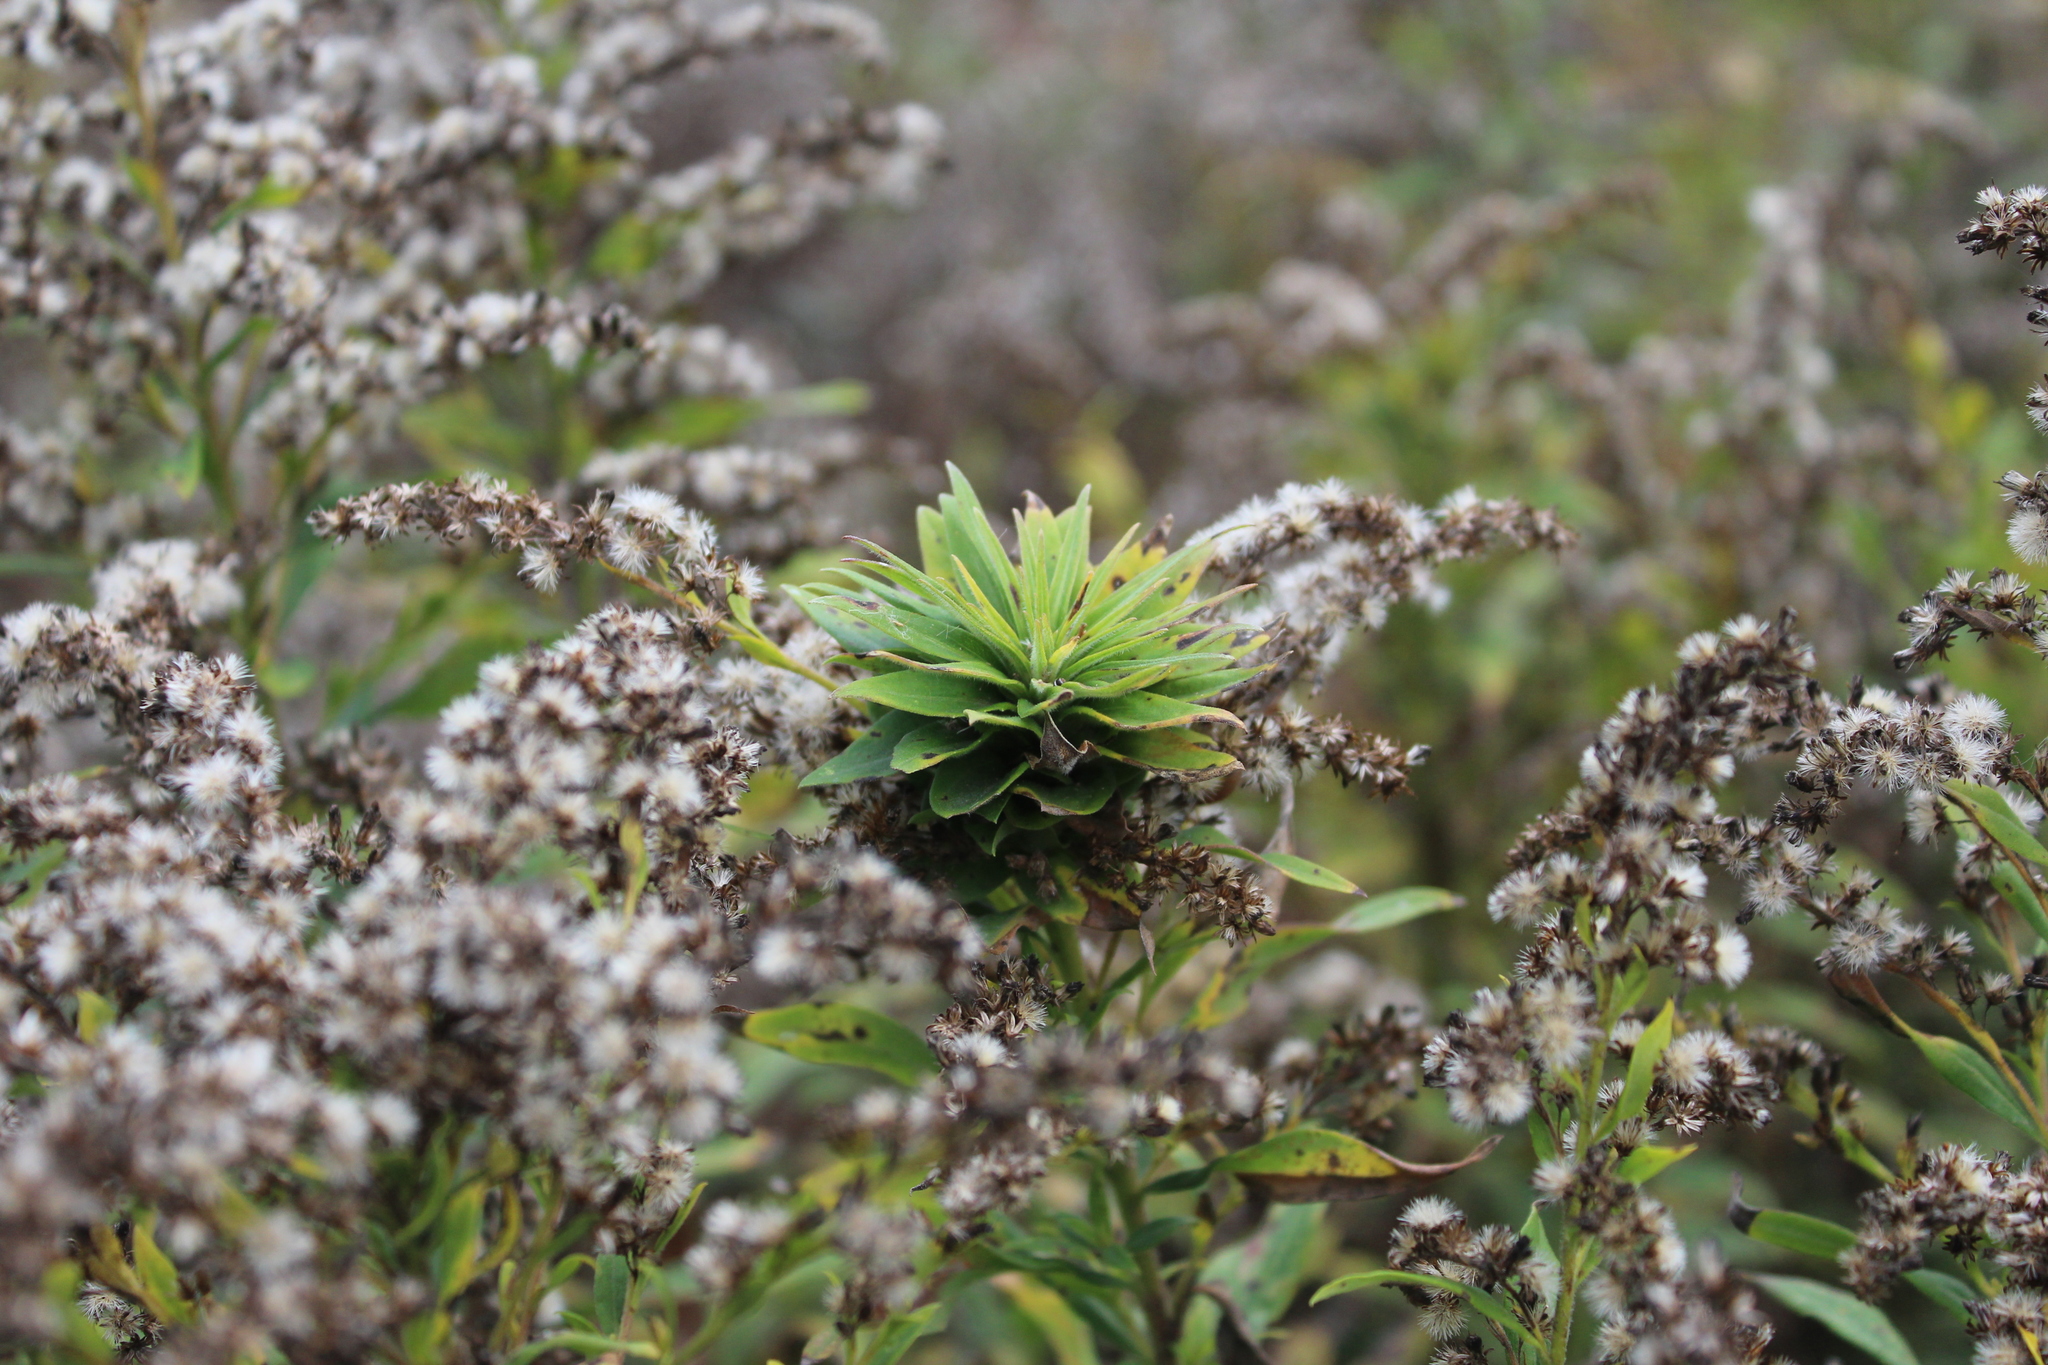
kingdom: Animalia
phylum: Arthropoda
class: Insecta
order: Diptera
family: Cecidomyiidae
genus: Rhopalomyia
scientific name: Rhopalomyia solidaginis
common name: Goldenrod bunch gall midge
